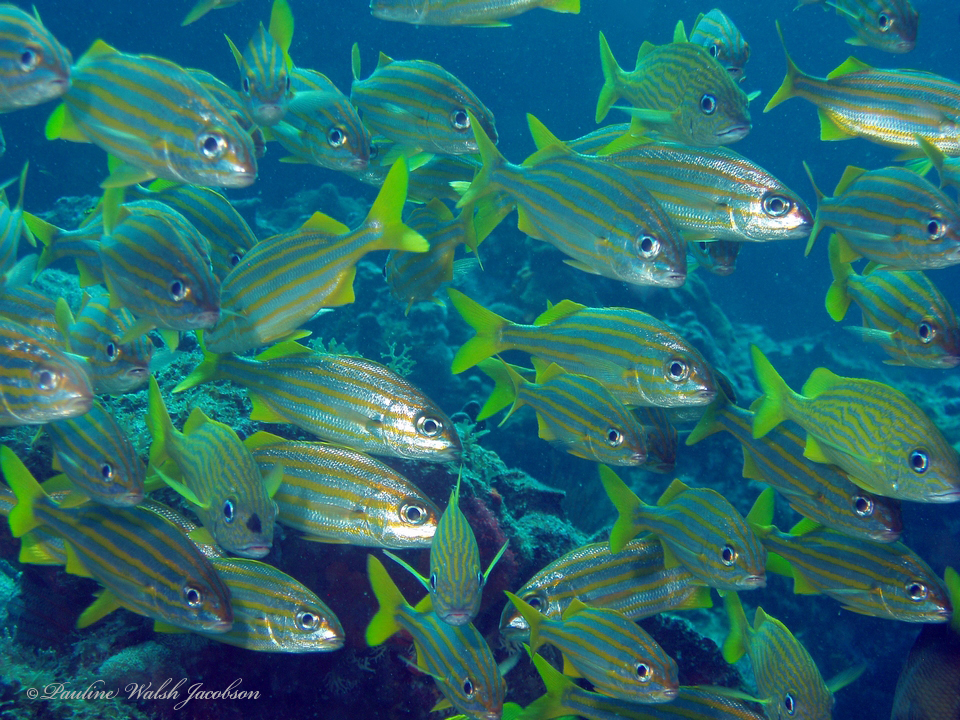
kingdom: Animalia
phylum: Chordata
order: Perciformes
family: Haemulidae
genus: Haemulon
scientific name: Haemulon chrysargyreum
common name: Smallmouth grunt
